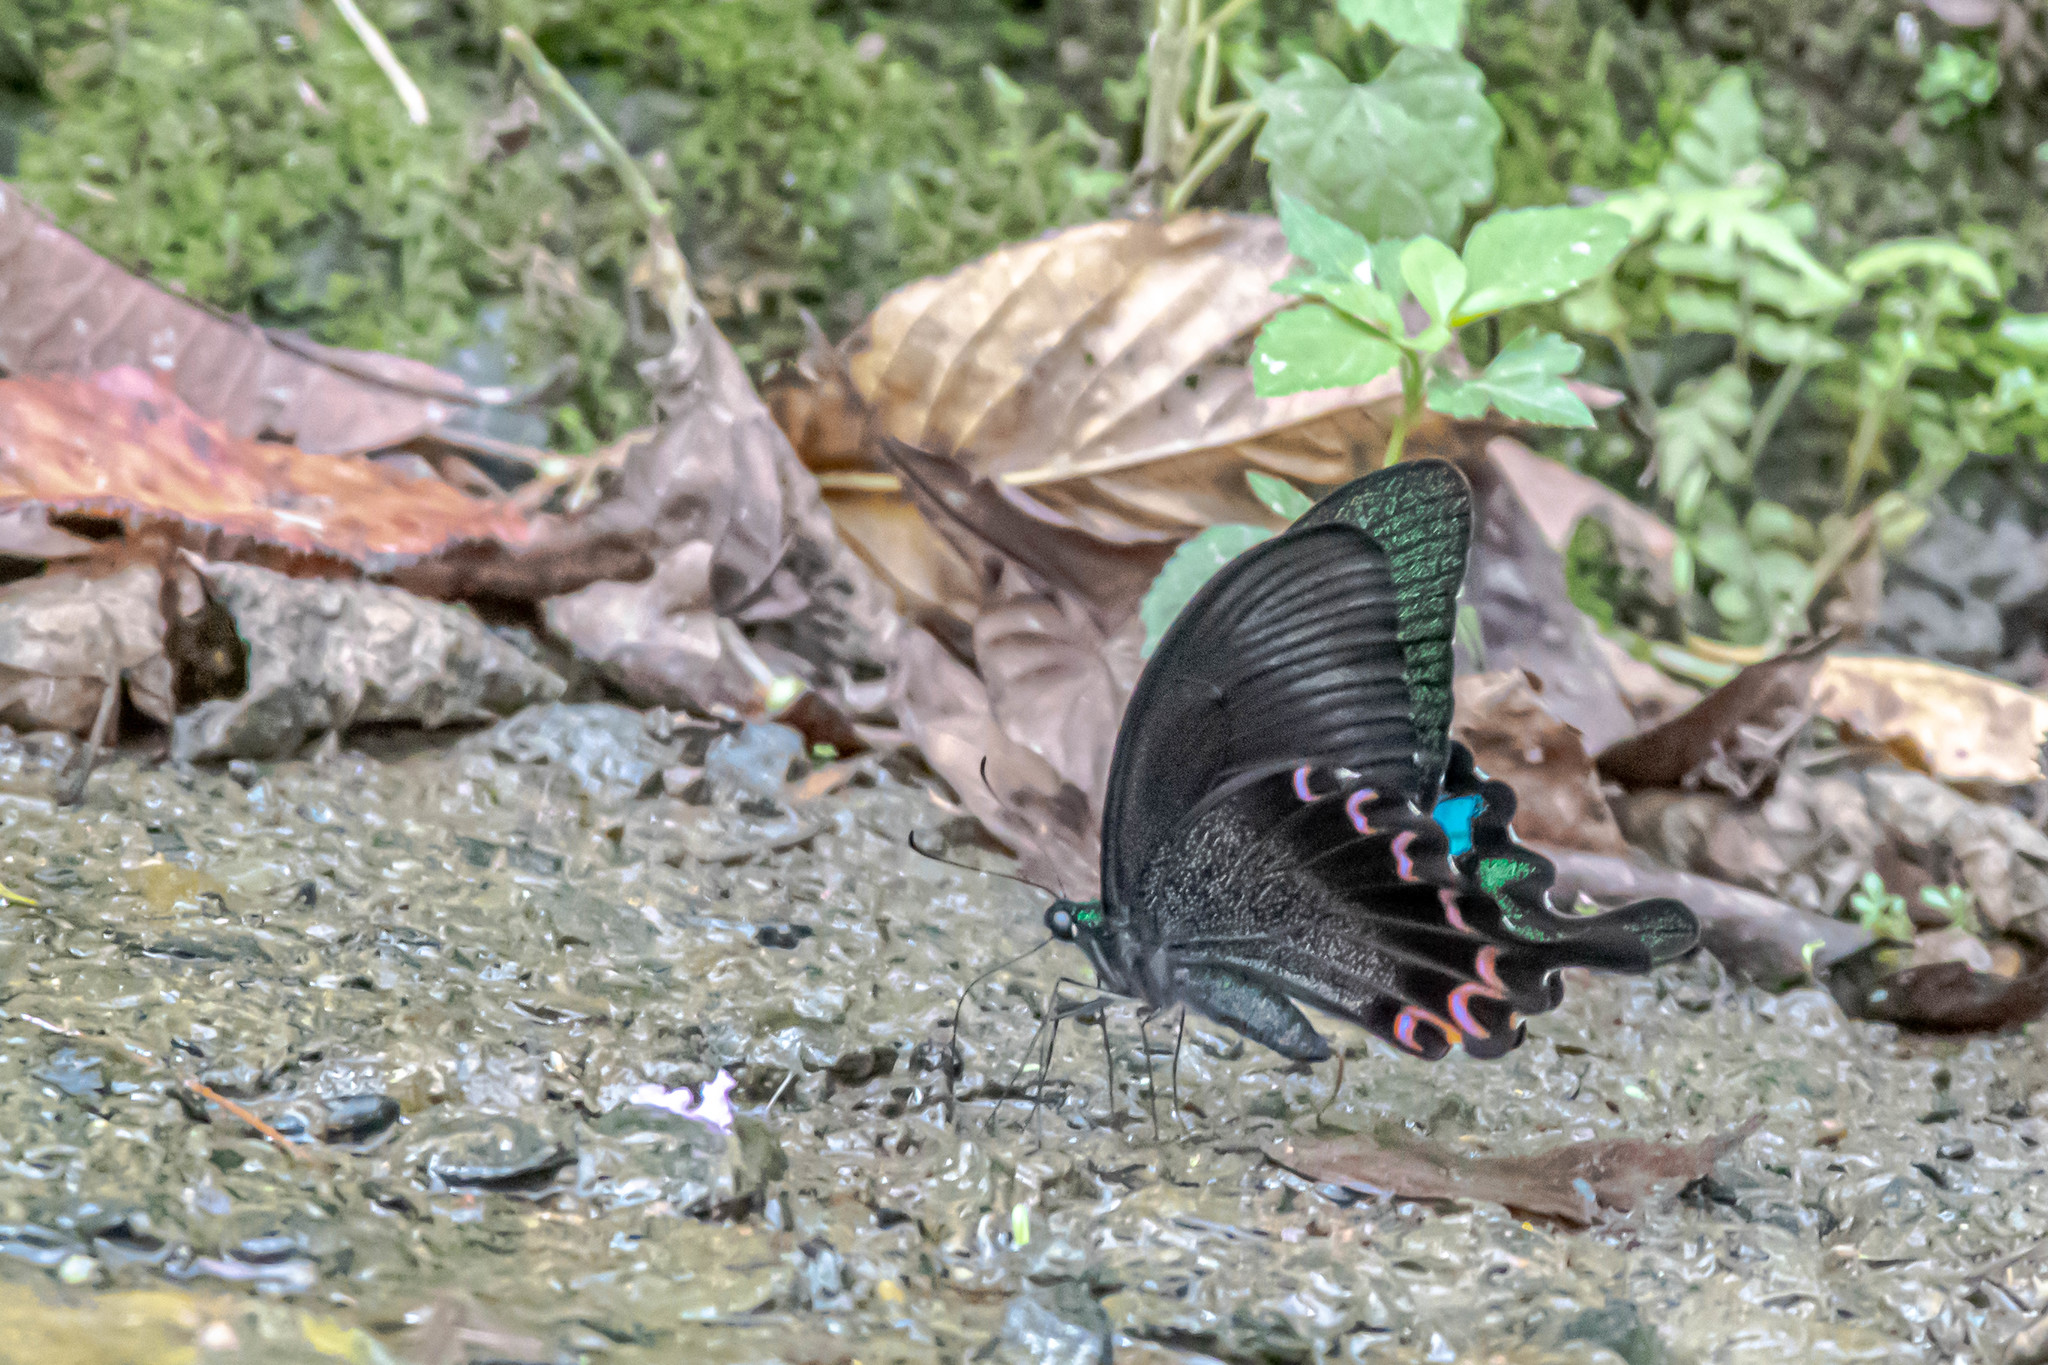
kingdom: Animalia
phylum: Arthropoda
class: Insecta
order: Lepidoptera
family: Papilionidae
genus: Papilio
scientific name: Papilio hermosanus
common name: Taiwanese glazed swallowtail
